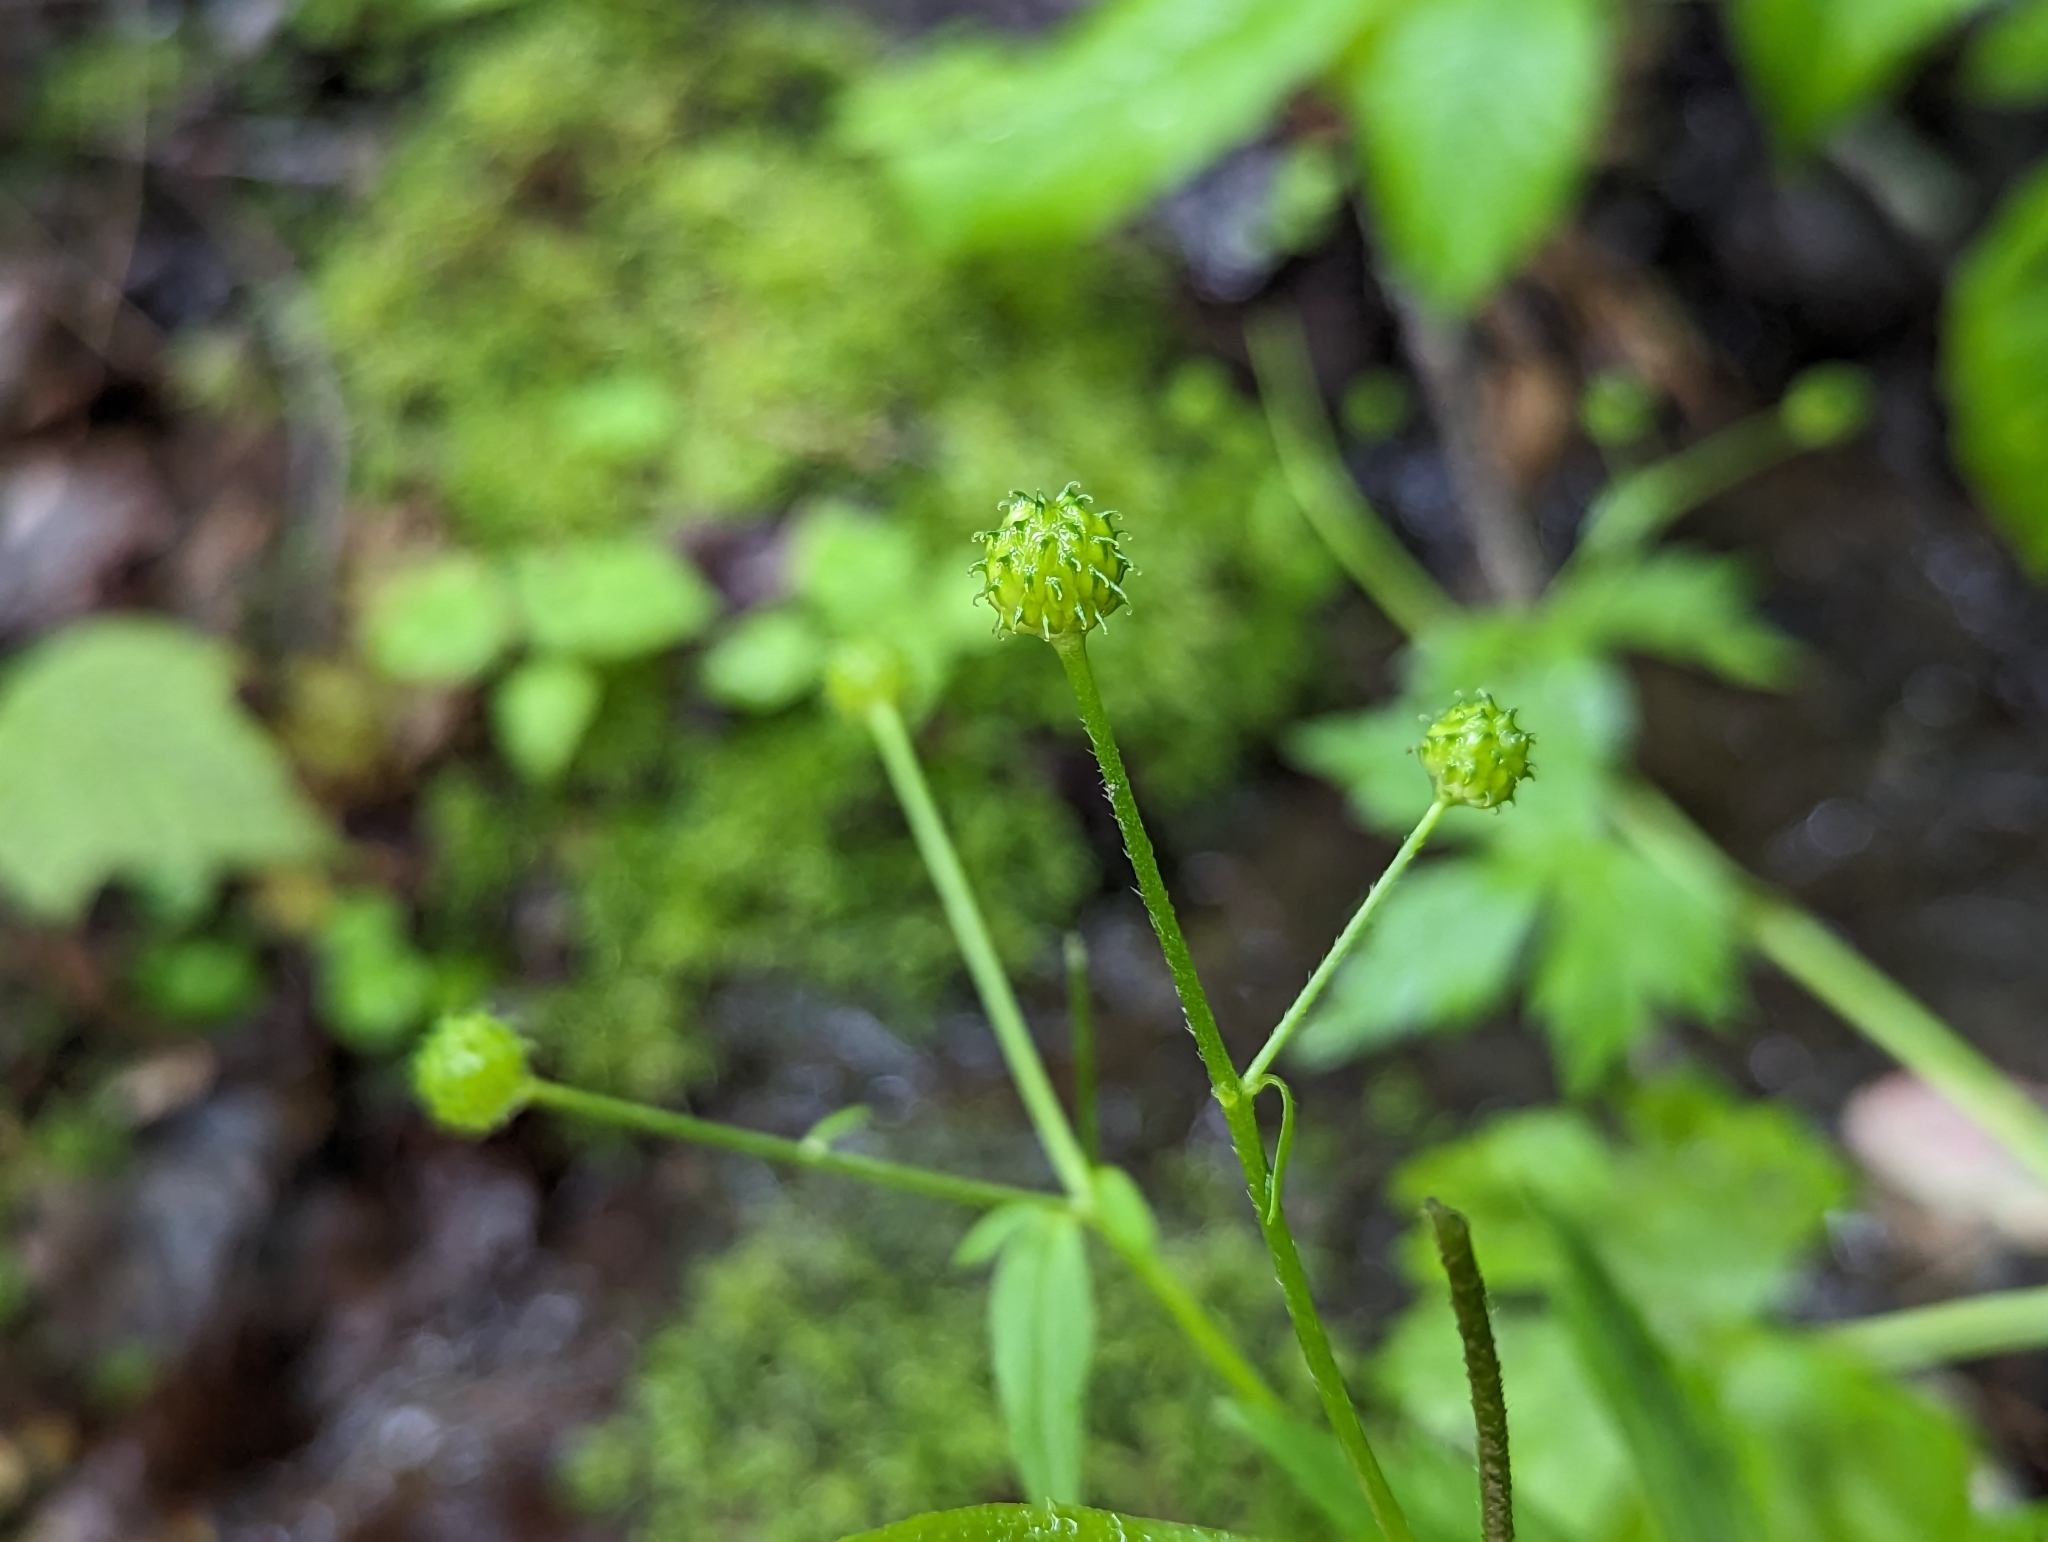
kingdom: Plantae
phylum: Tracheophyta
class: Magnoliopsida
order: Ranunculales
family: Ranunculaceae
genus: Ranunculus
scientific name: Ranunculus recurvatus
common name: Blisterwort
